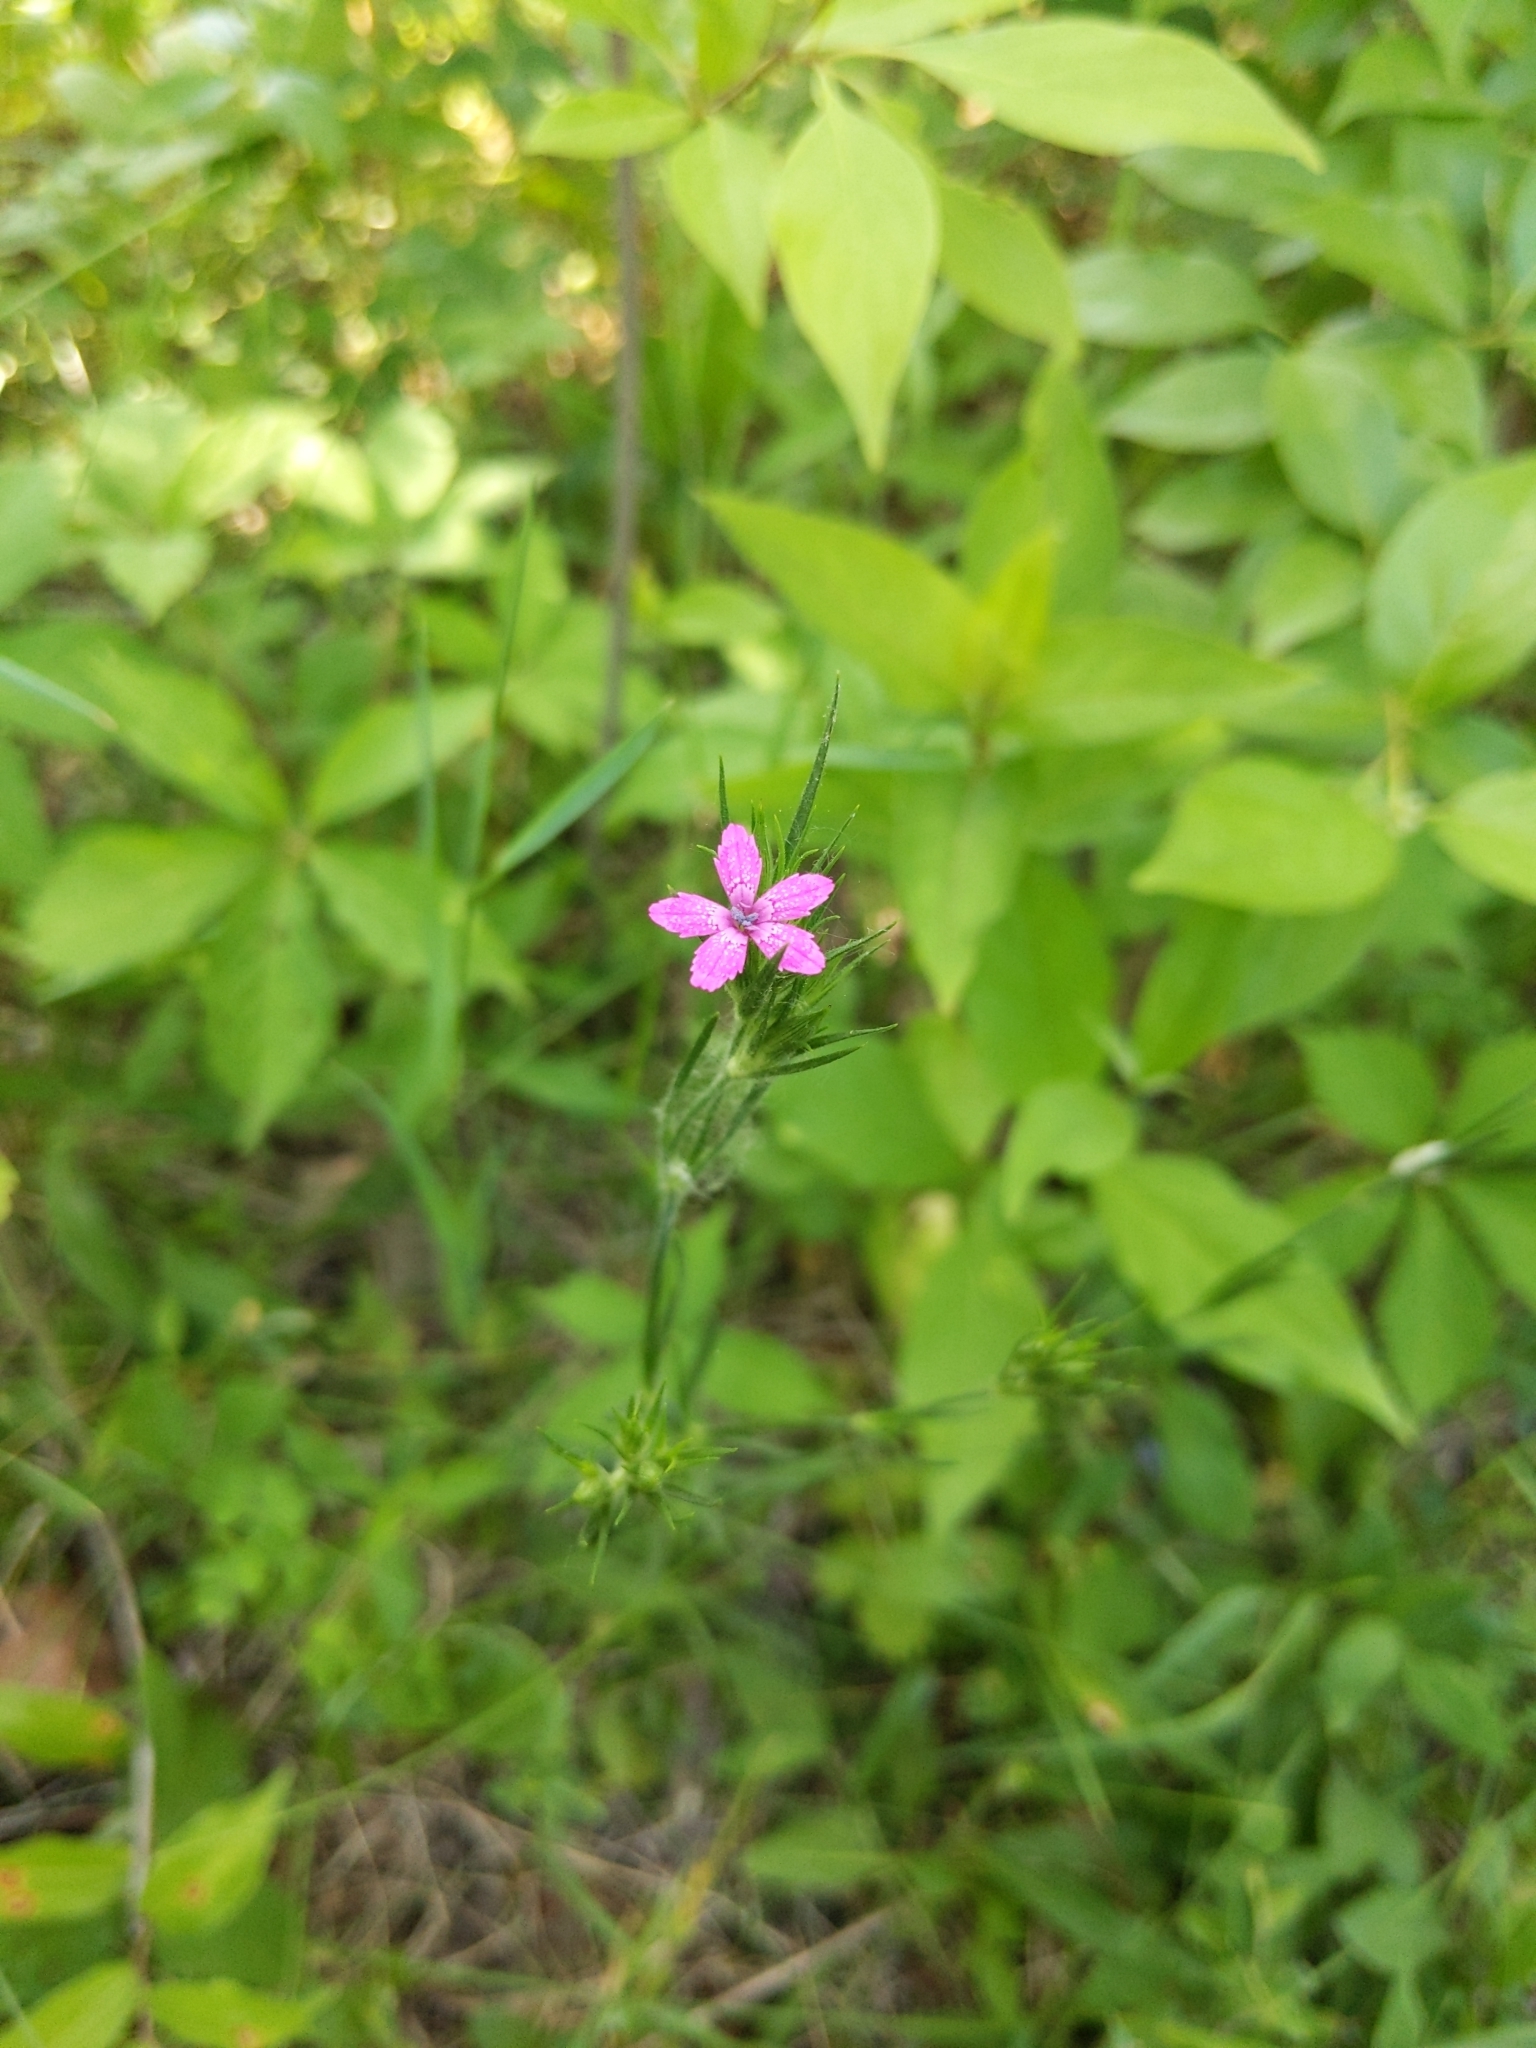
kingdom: Plantae
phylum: Tracheophyta
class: Magnoliopsida
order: Caryophyllales
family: Caryophyllaceae
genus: Dianthus
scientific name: Dianthus armeria
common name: Deptford pink
